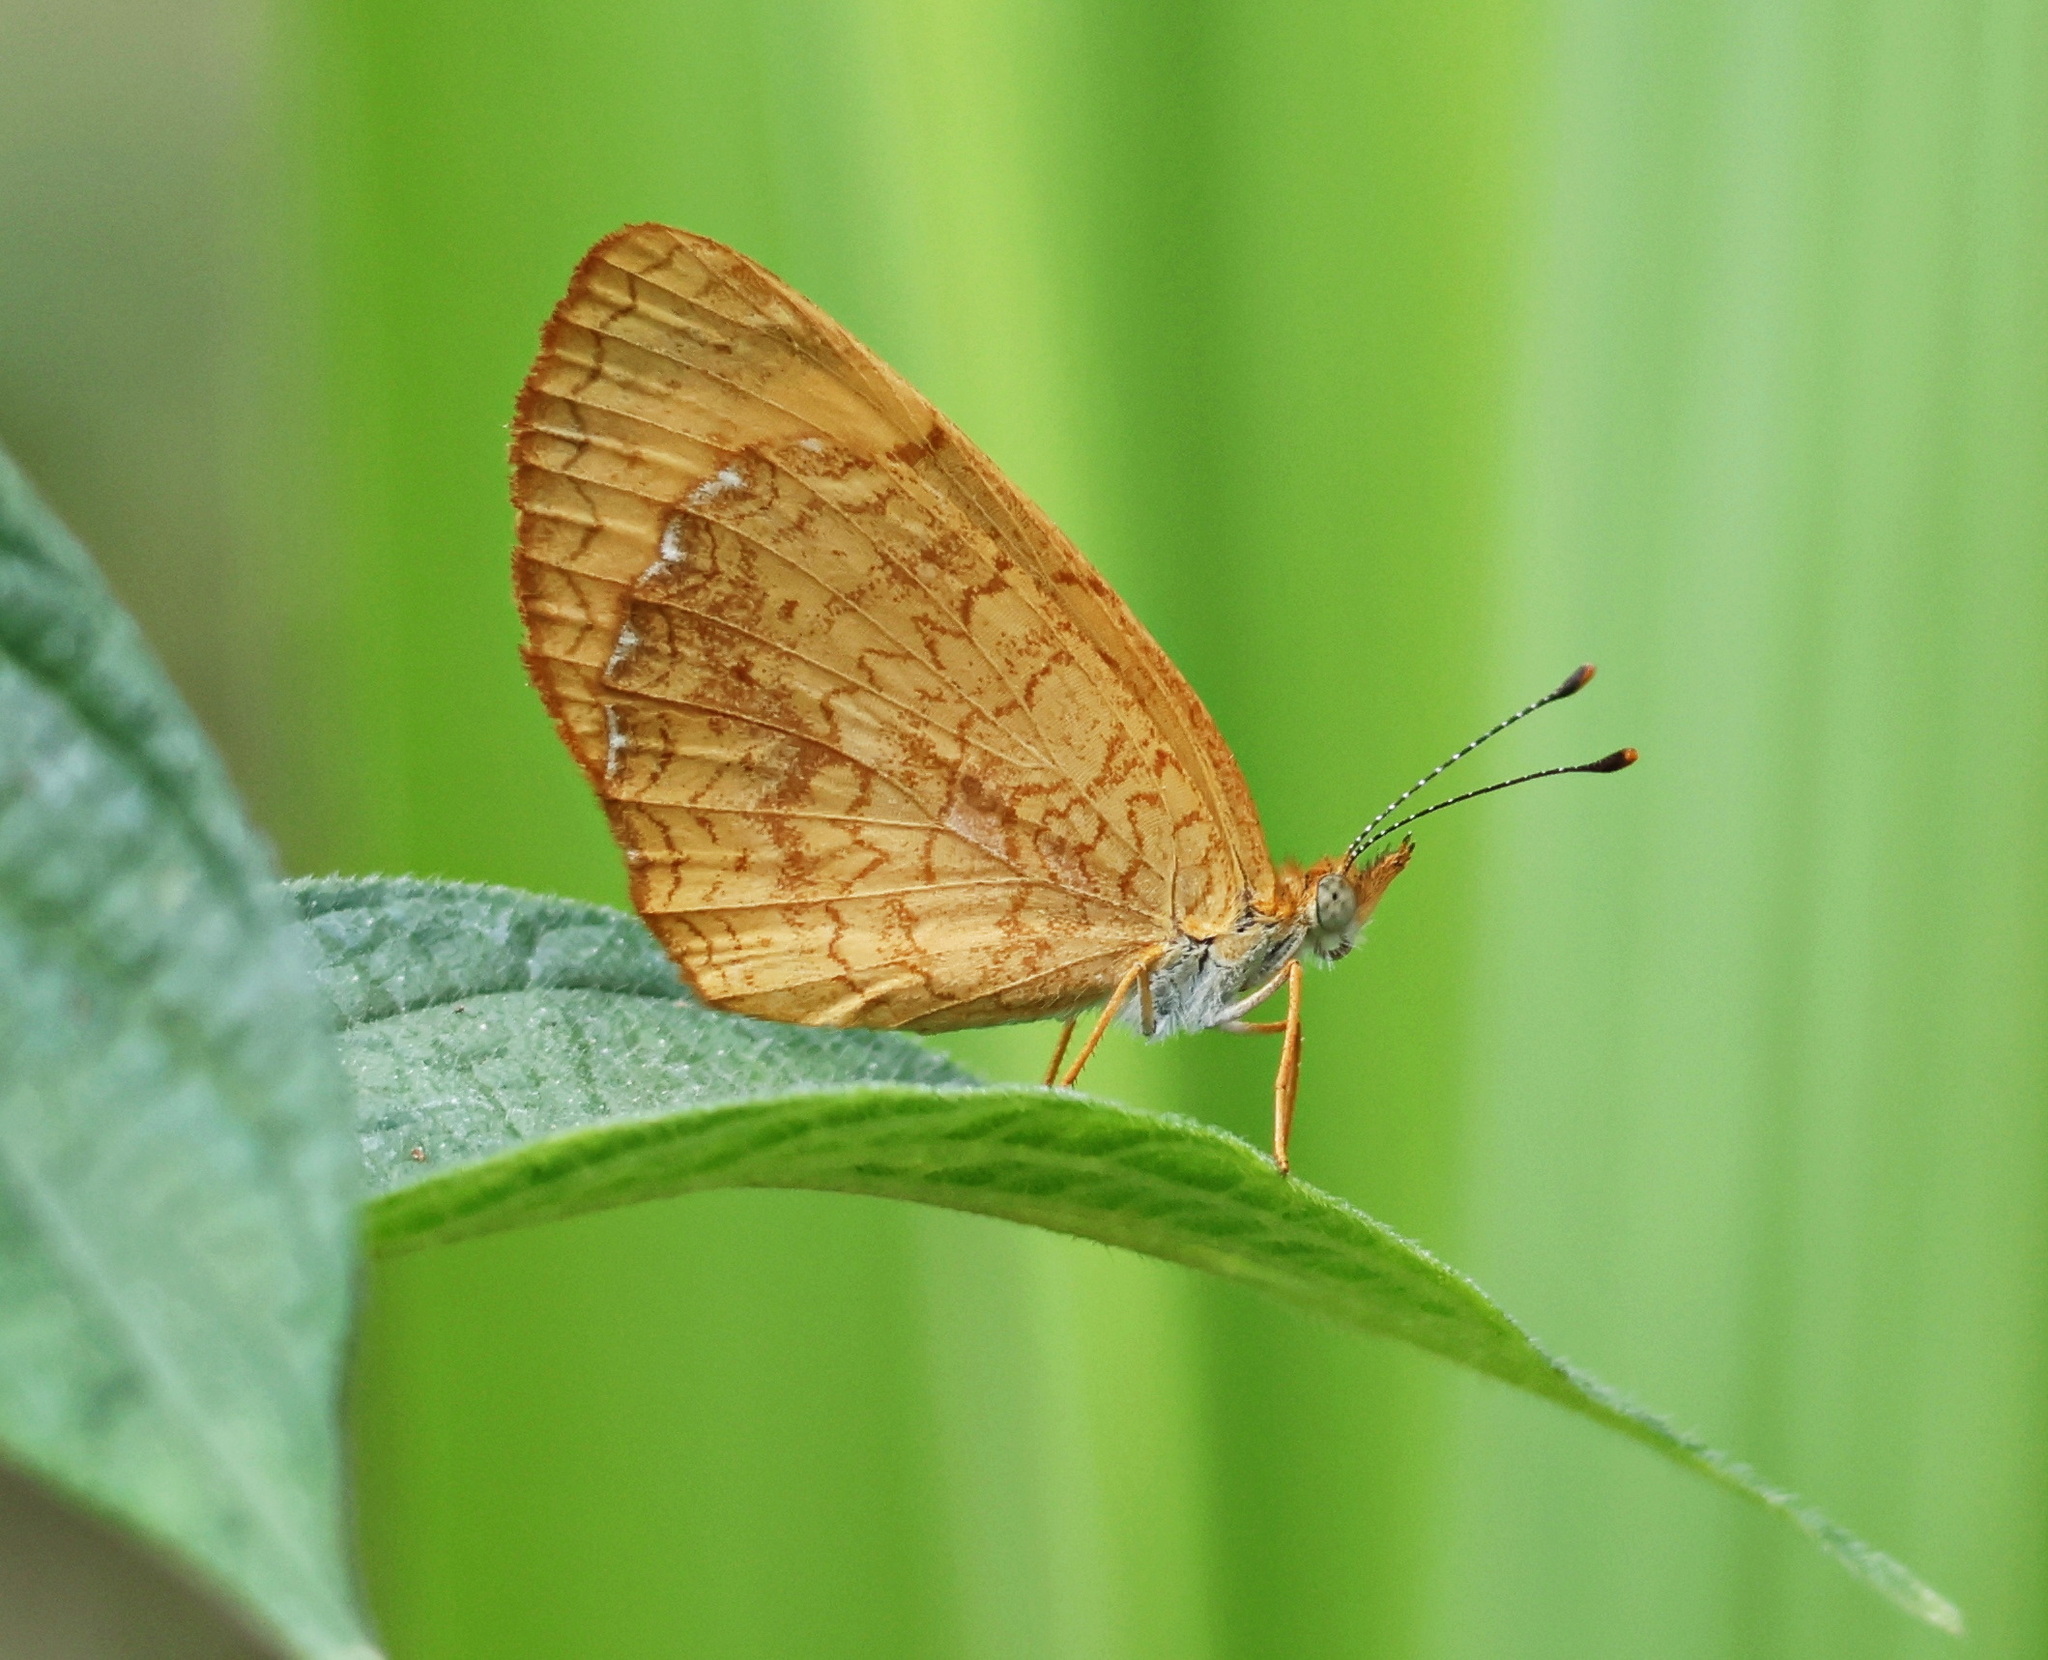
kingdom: Animalia
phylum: Arthropoda
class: Insecta
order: Lepidoptera
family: Nymphalidae
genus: Tegosa
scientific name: Tegosa anieta
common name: Black-bordered crescent
